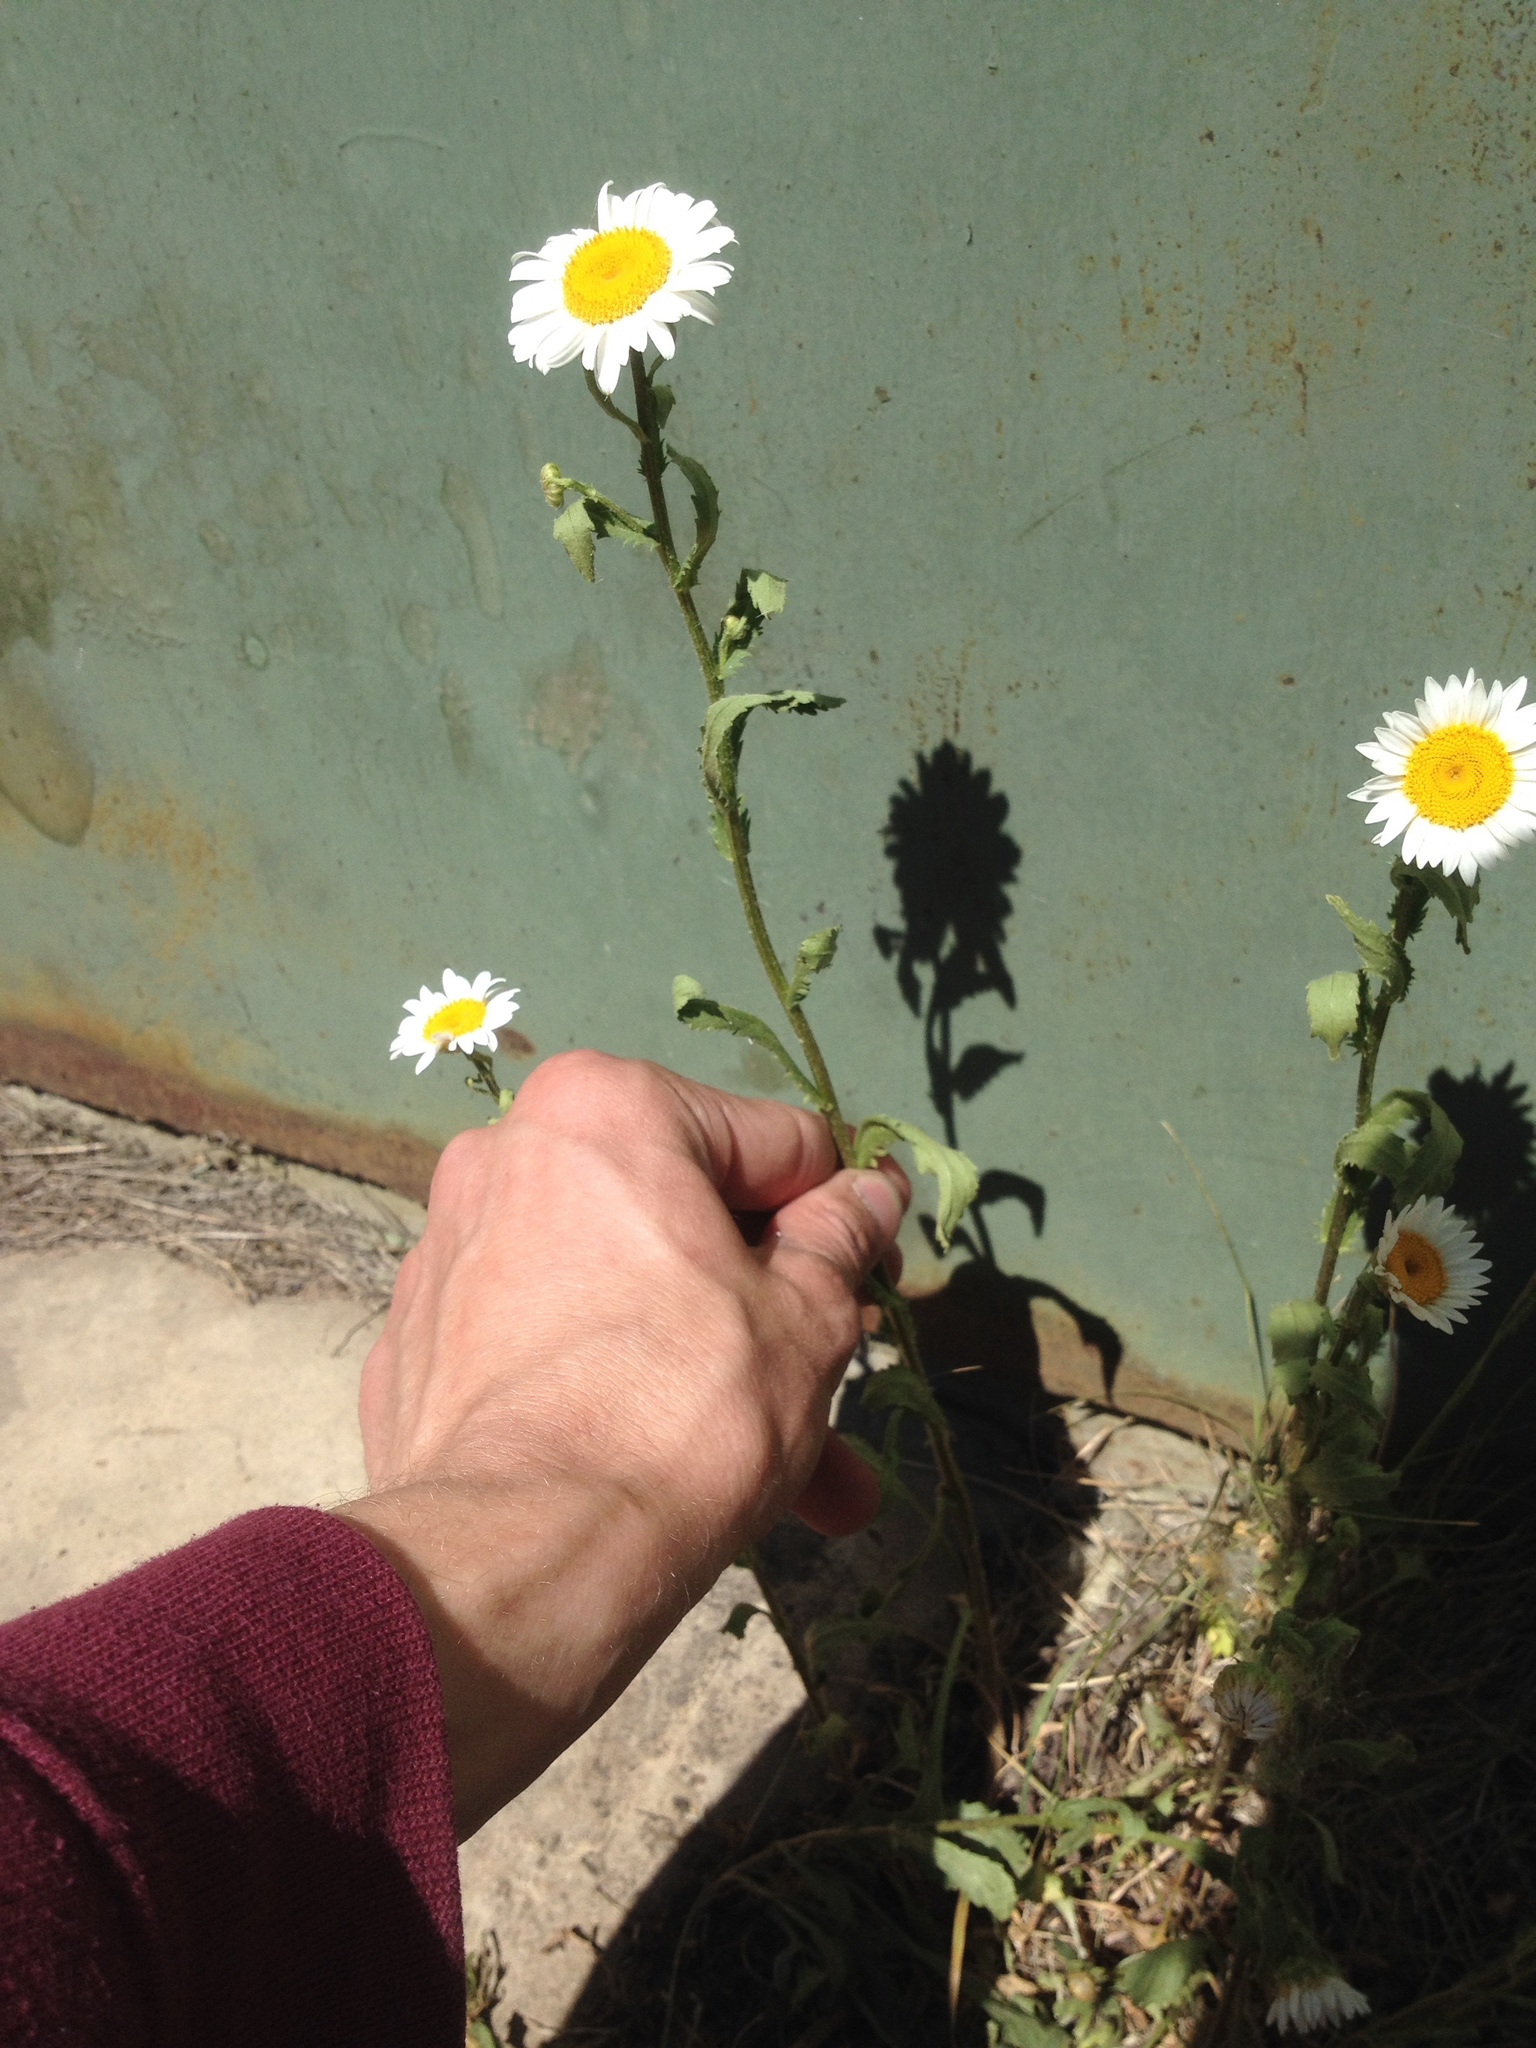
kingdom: Plantae
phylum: Tracheophyta
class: Magnoliopsida
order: Asterales
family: Asteraceae
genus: Leucanthemum
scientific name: Leucanthemum vulgare
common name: Oxeye daisy
